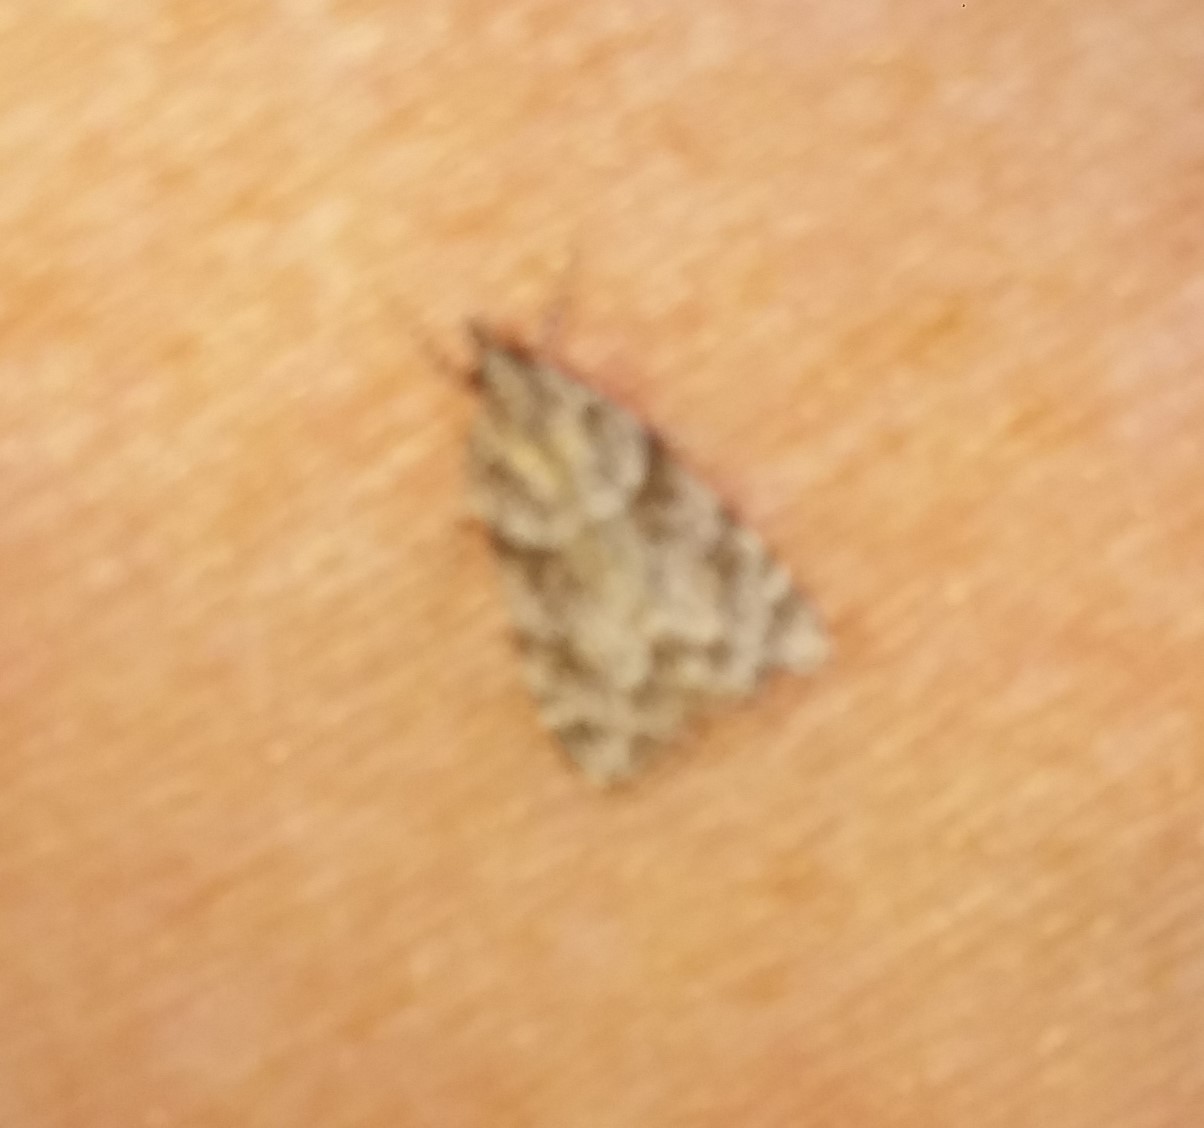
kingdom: Animalia
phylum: Arthropoda
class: Insecta
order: Lepidoptera
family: Crambidae
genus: Scoparia
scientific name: Scoparia biplagialis
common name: Double-striped scoparia moth
